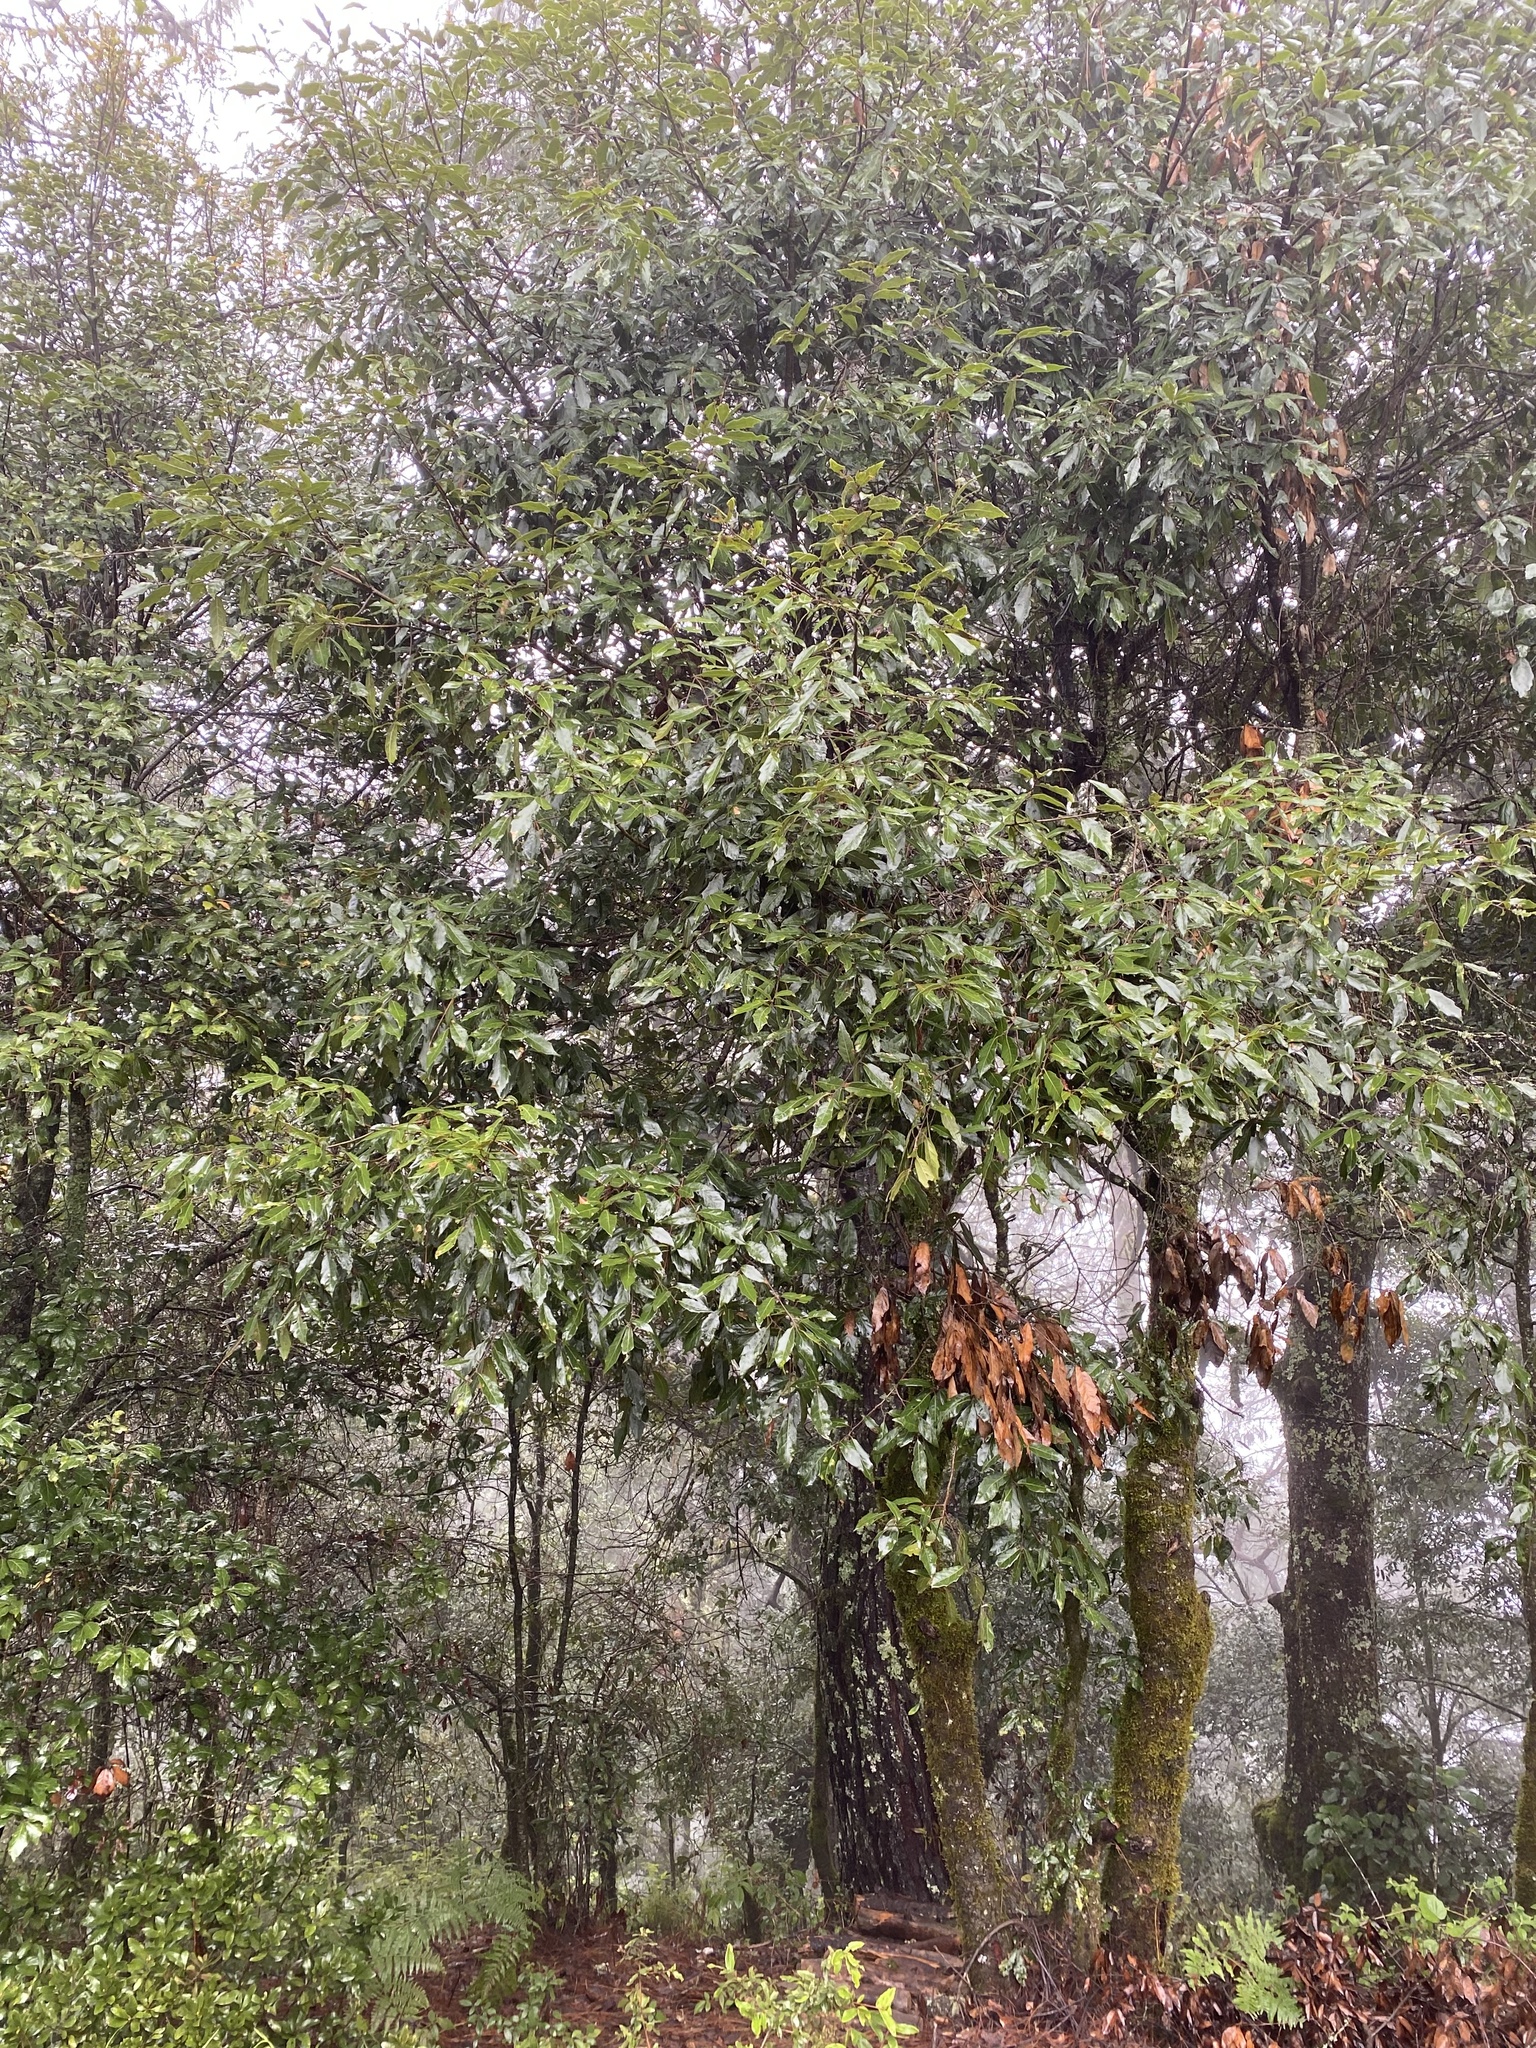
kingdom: Plantae
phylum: Tracheophyta
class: Magnoliopsida
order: Fagales
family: Fagaceae
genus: Quercus
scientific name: Quercus laurina
